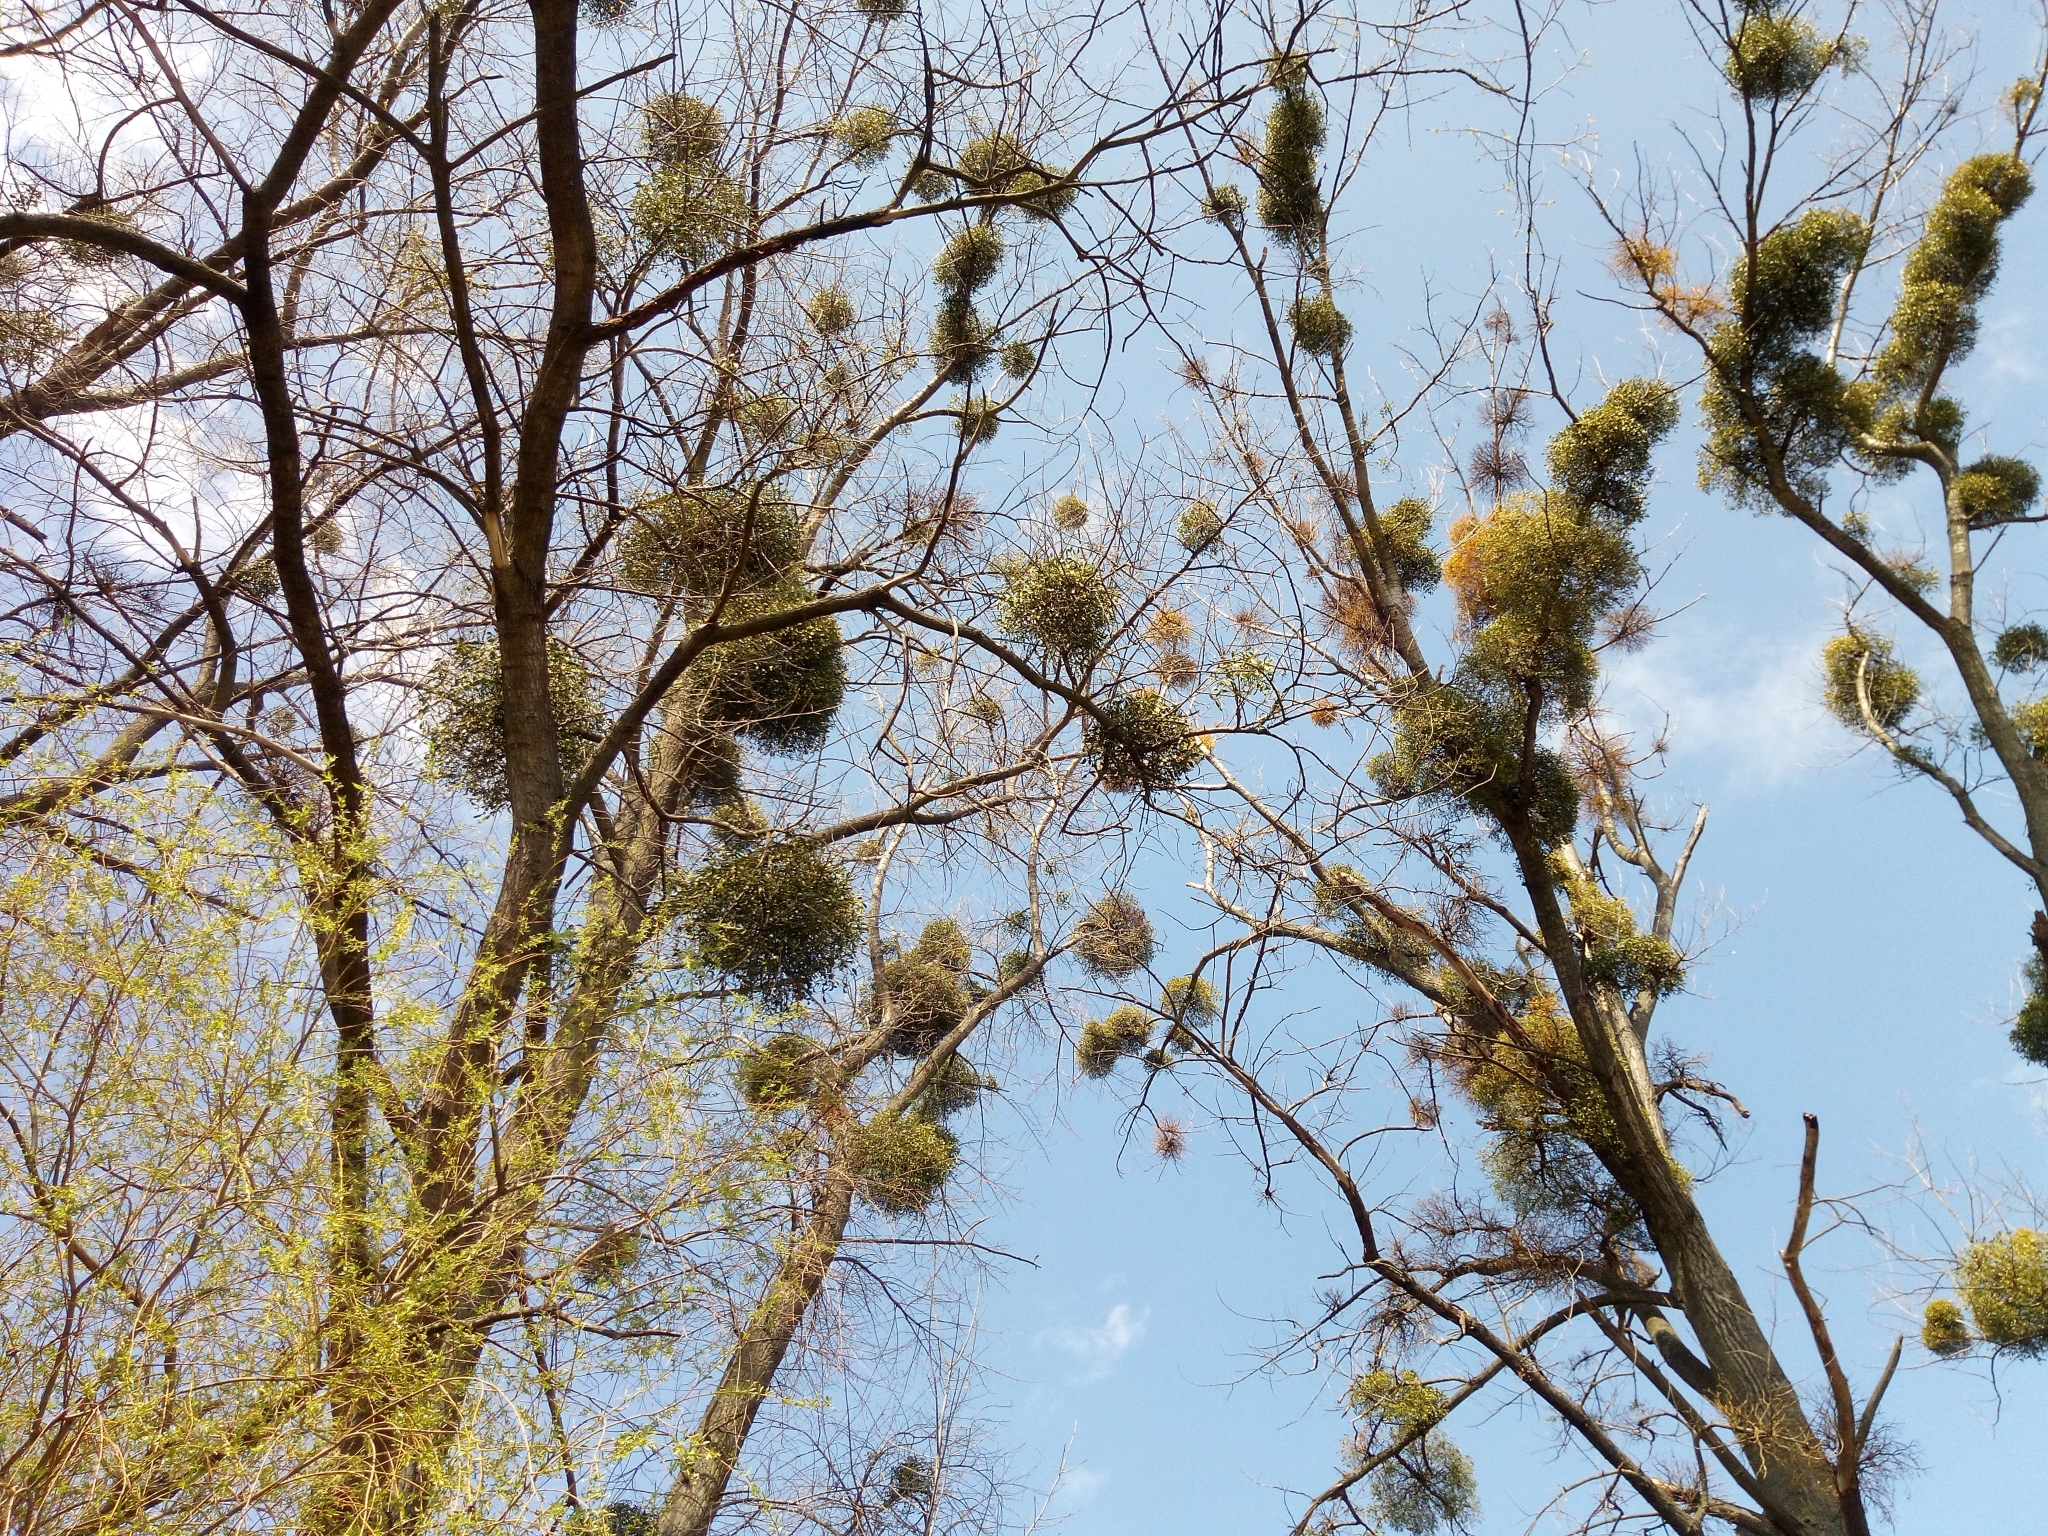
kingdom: Plantae
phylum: Tracheophyta
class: Magnoliopsida
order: Santalales
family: Viscaceae
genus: Viscum
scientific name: Viscum album
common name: Mistletoe
